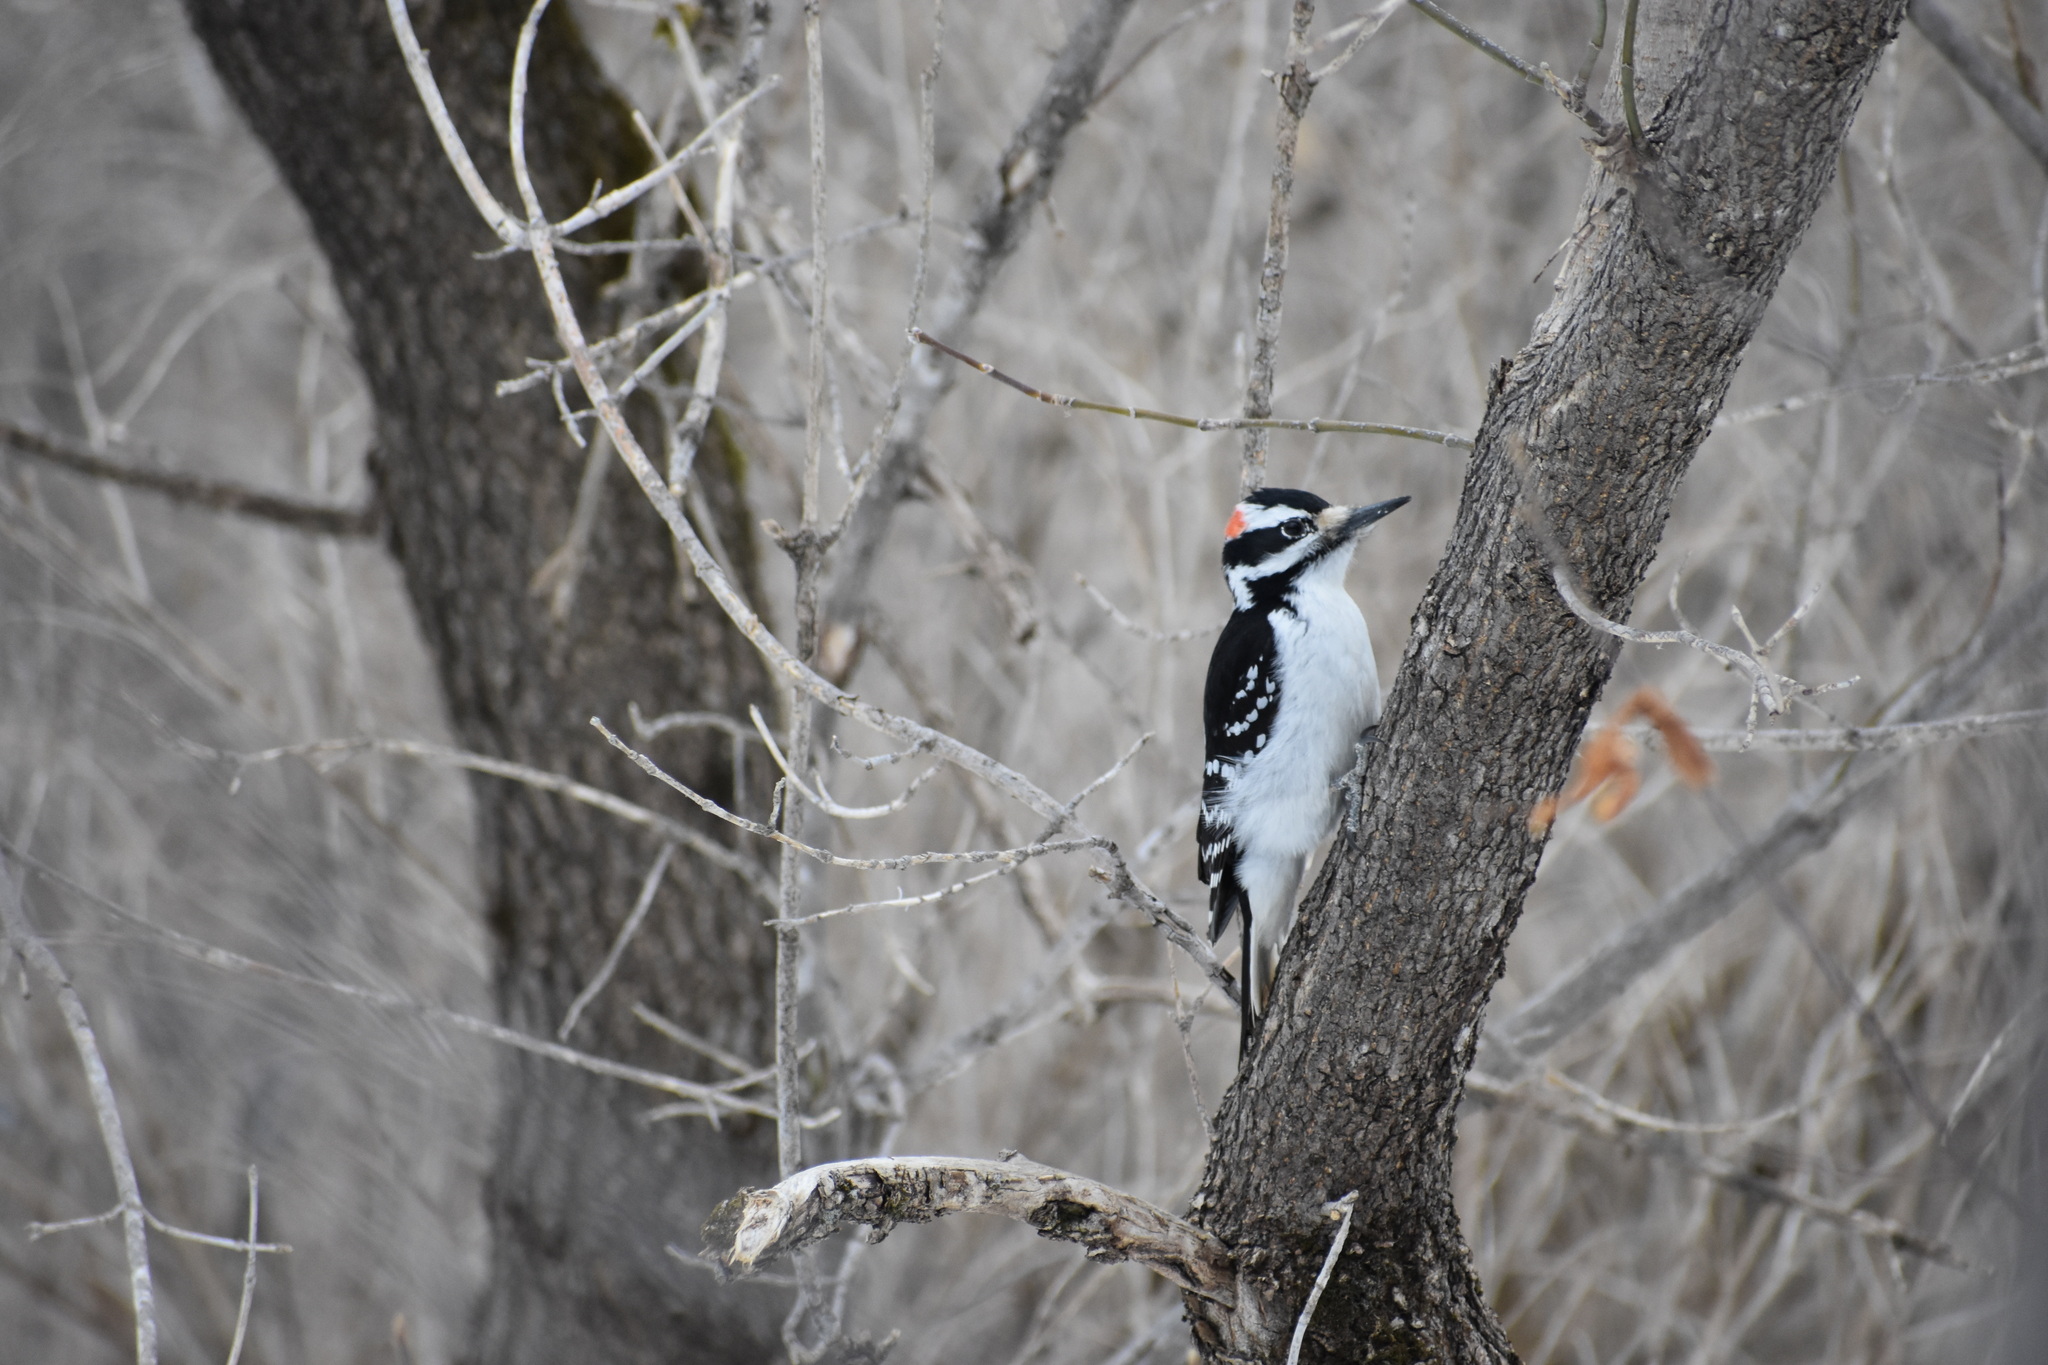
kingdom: Animalia
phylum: Chordata
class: Aves
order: Piciformes
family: Picidae
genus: Leuconotopicus
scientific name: Leuconotopicus villosus
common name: Hairy woodpecker
